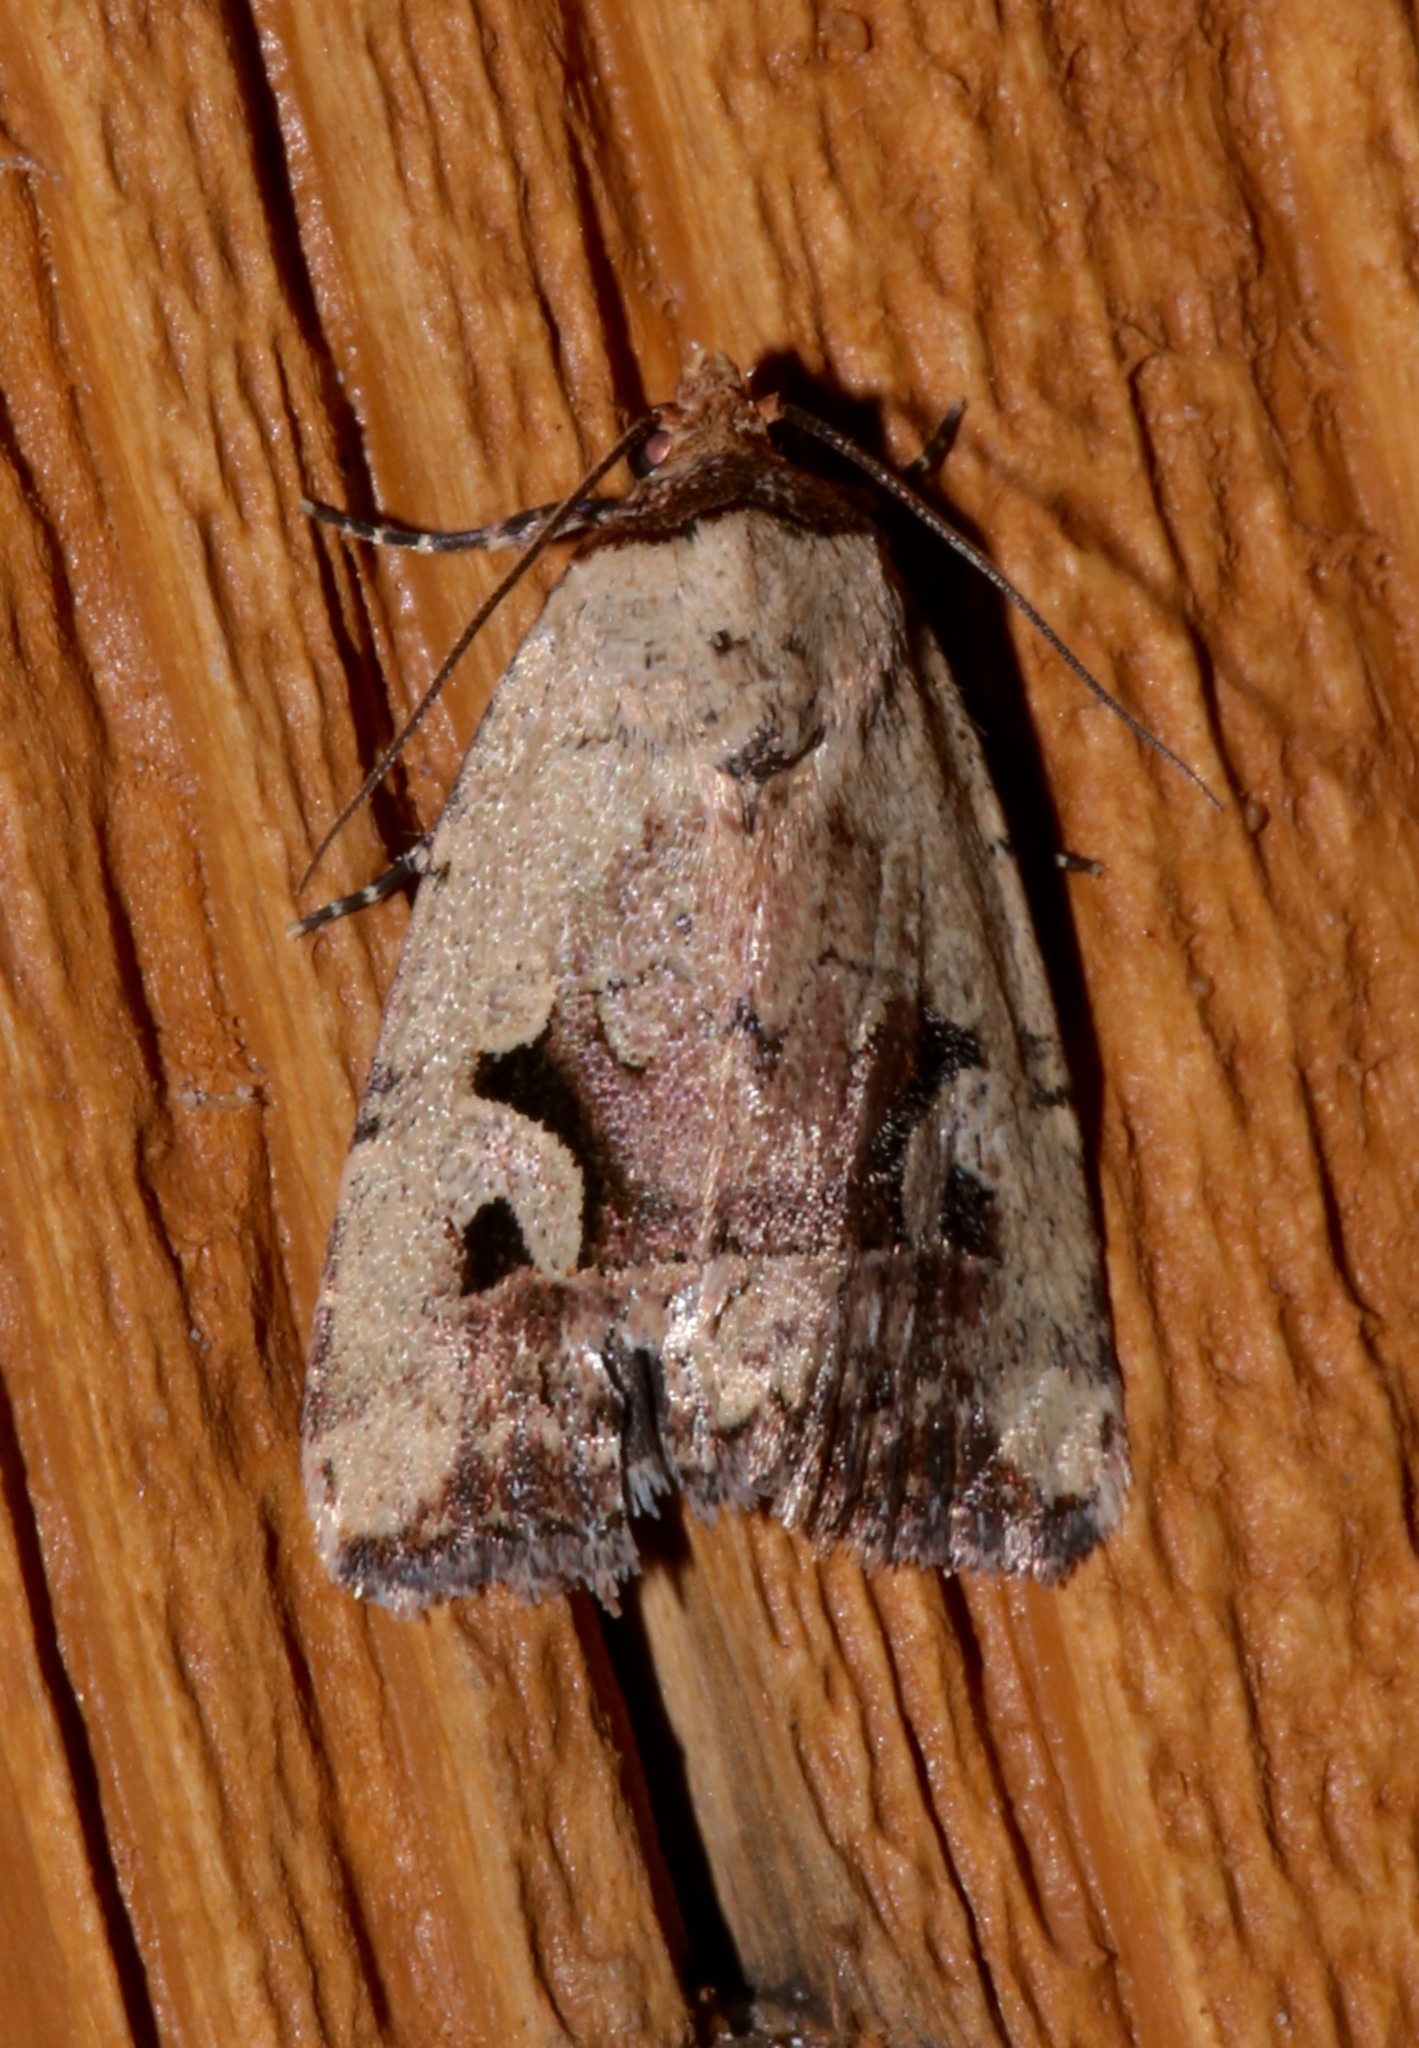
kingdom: Animalia
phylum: Arthropoda
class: Insecta
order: Lepidoptera
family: Noctuidae
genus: Elaphria
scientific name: Elaphria festivoides
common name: Festive midget
